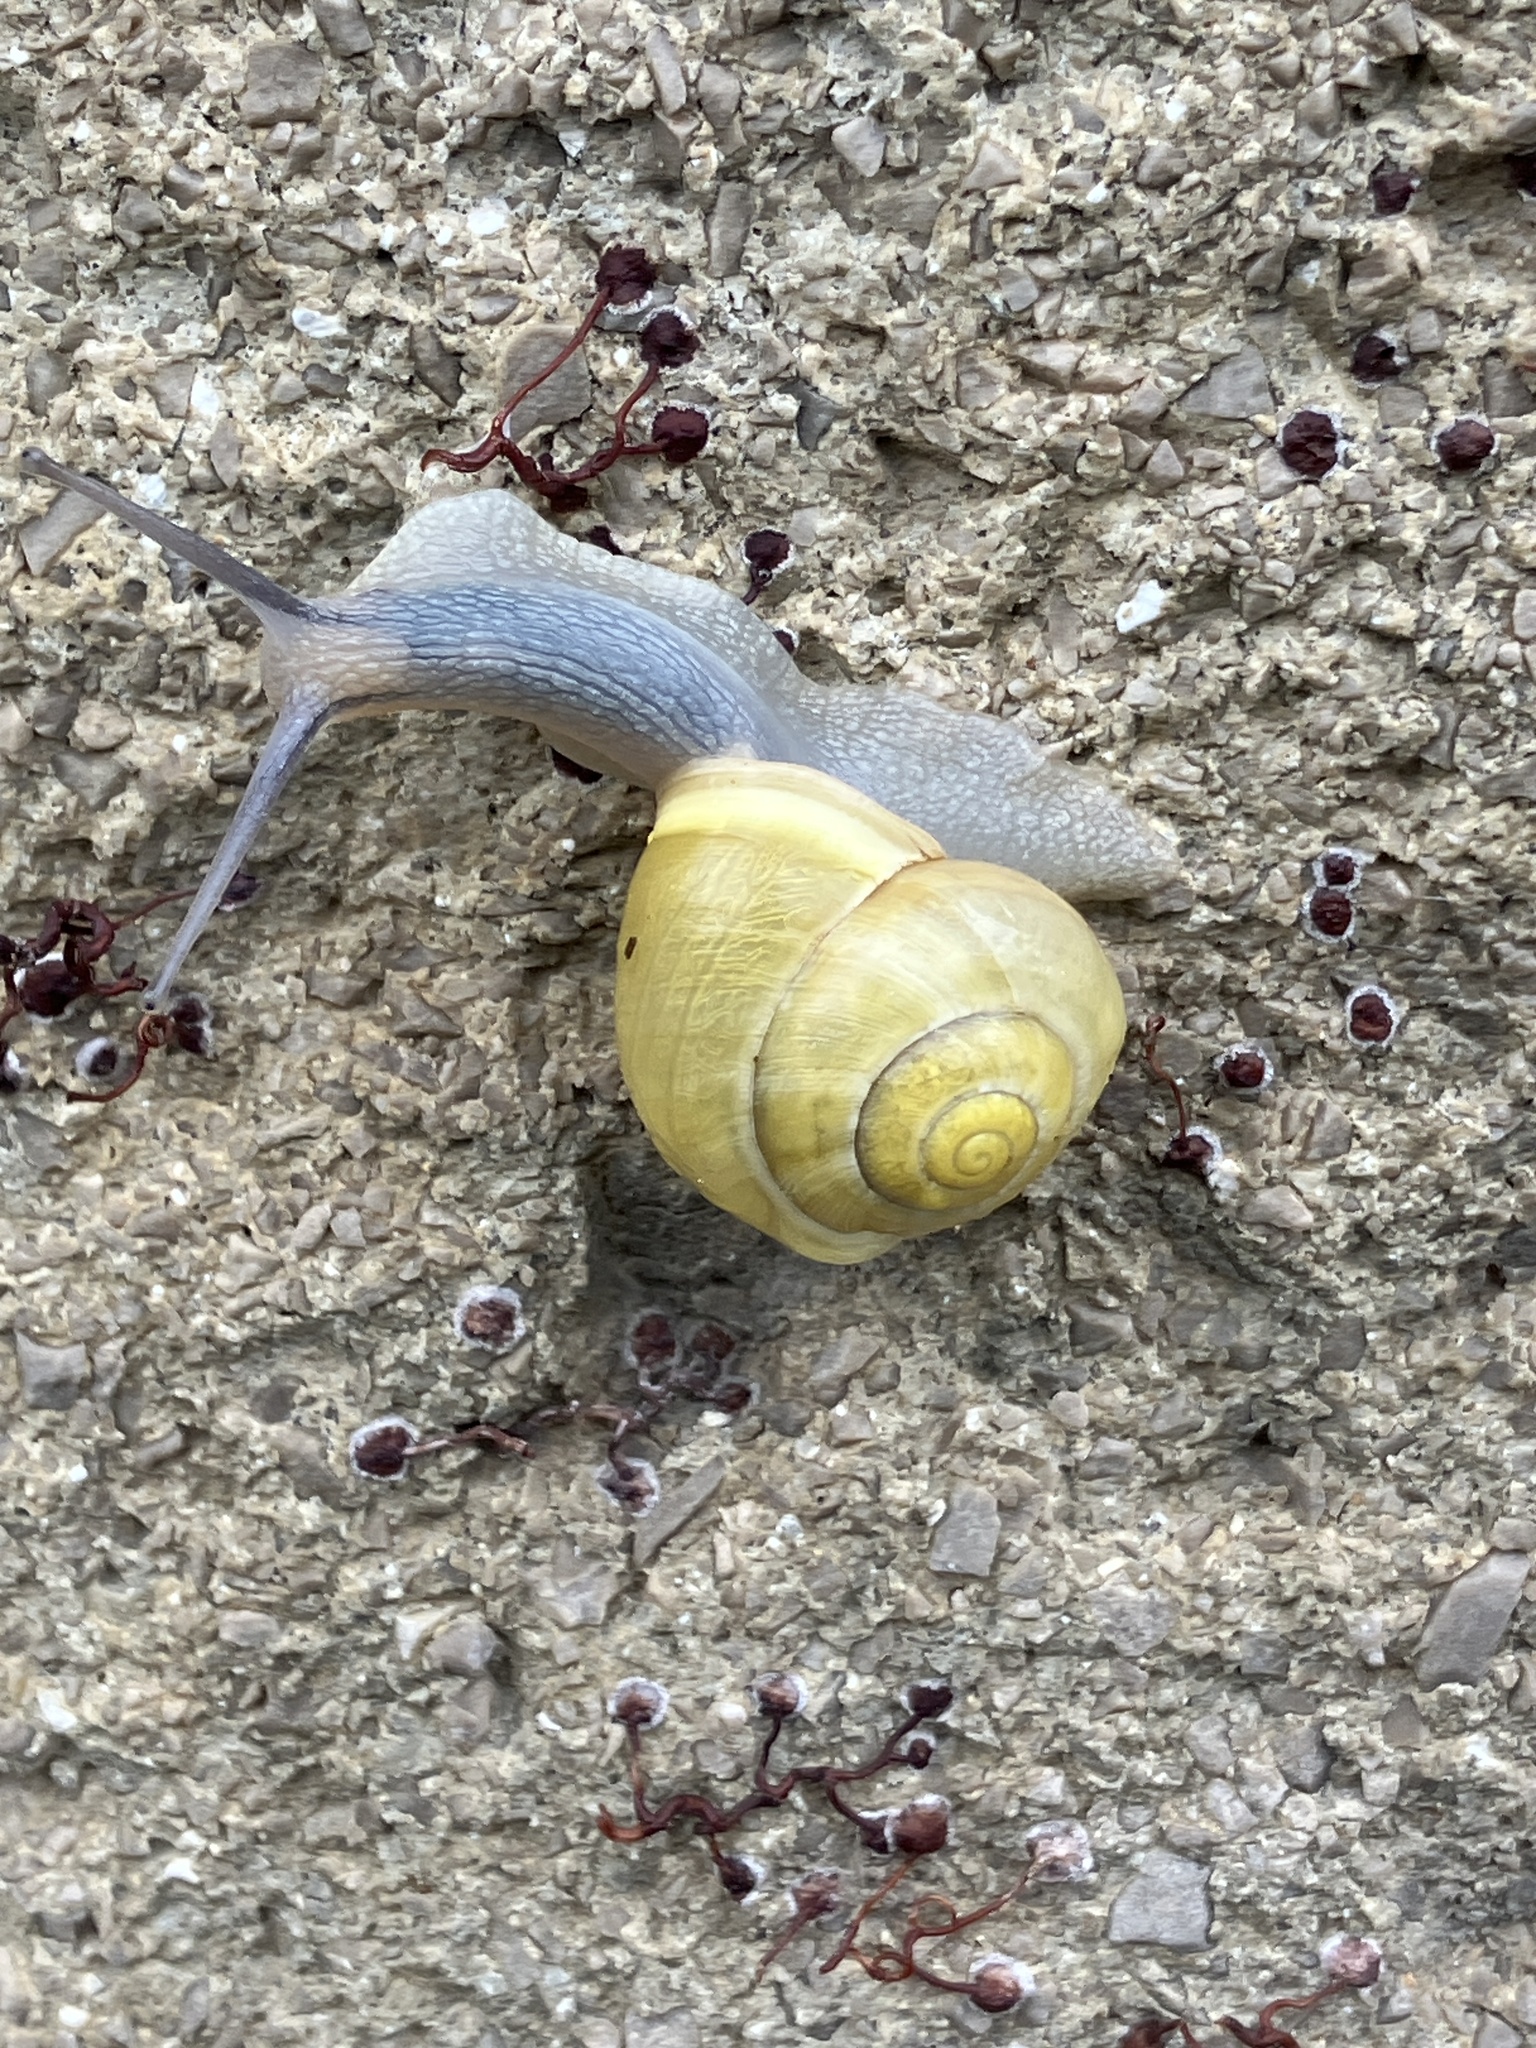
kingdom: Animalia
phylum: Mollusca
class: Gastropoda
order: Stylommatophora
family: Helicidae
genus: Cepaea
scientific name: Cepaea hortensis
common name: White-lip gardensnail
